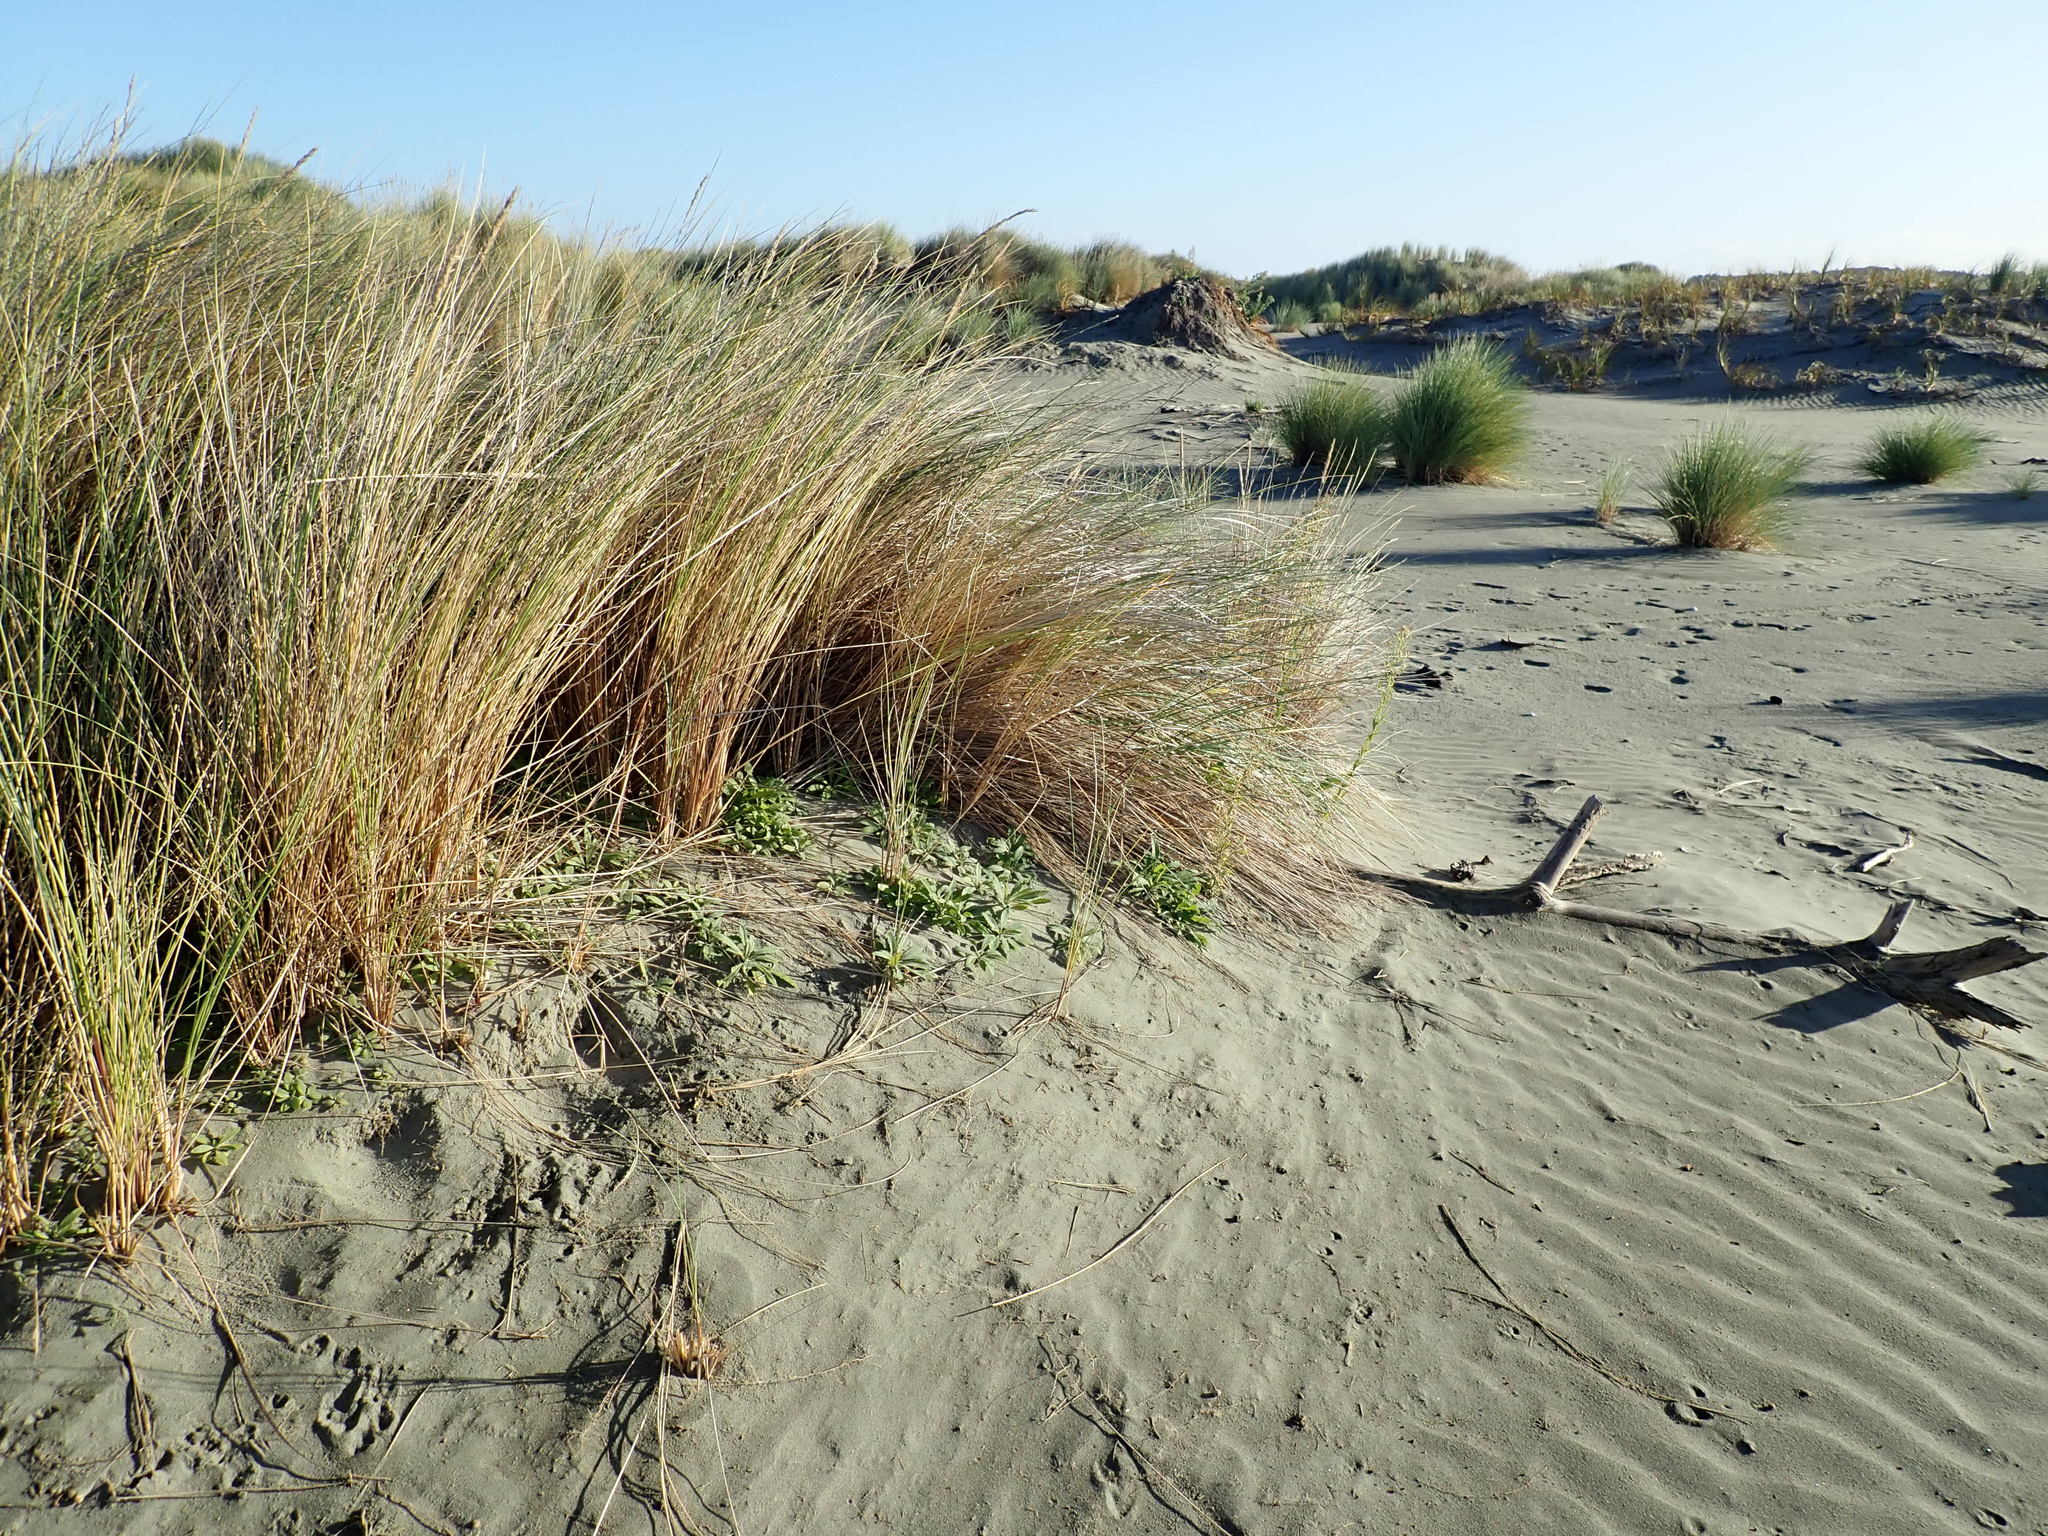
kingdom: Plantae
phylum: Tracheophyta
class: Magnoliopsida
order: Asterales
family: Asteraceae
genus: Erigeron
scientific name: Erigeron sumatrensis
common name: Daisy
